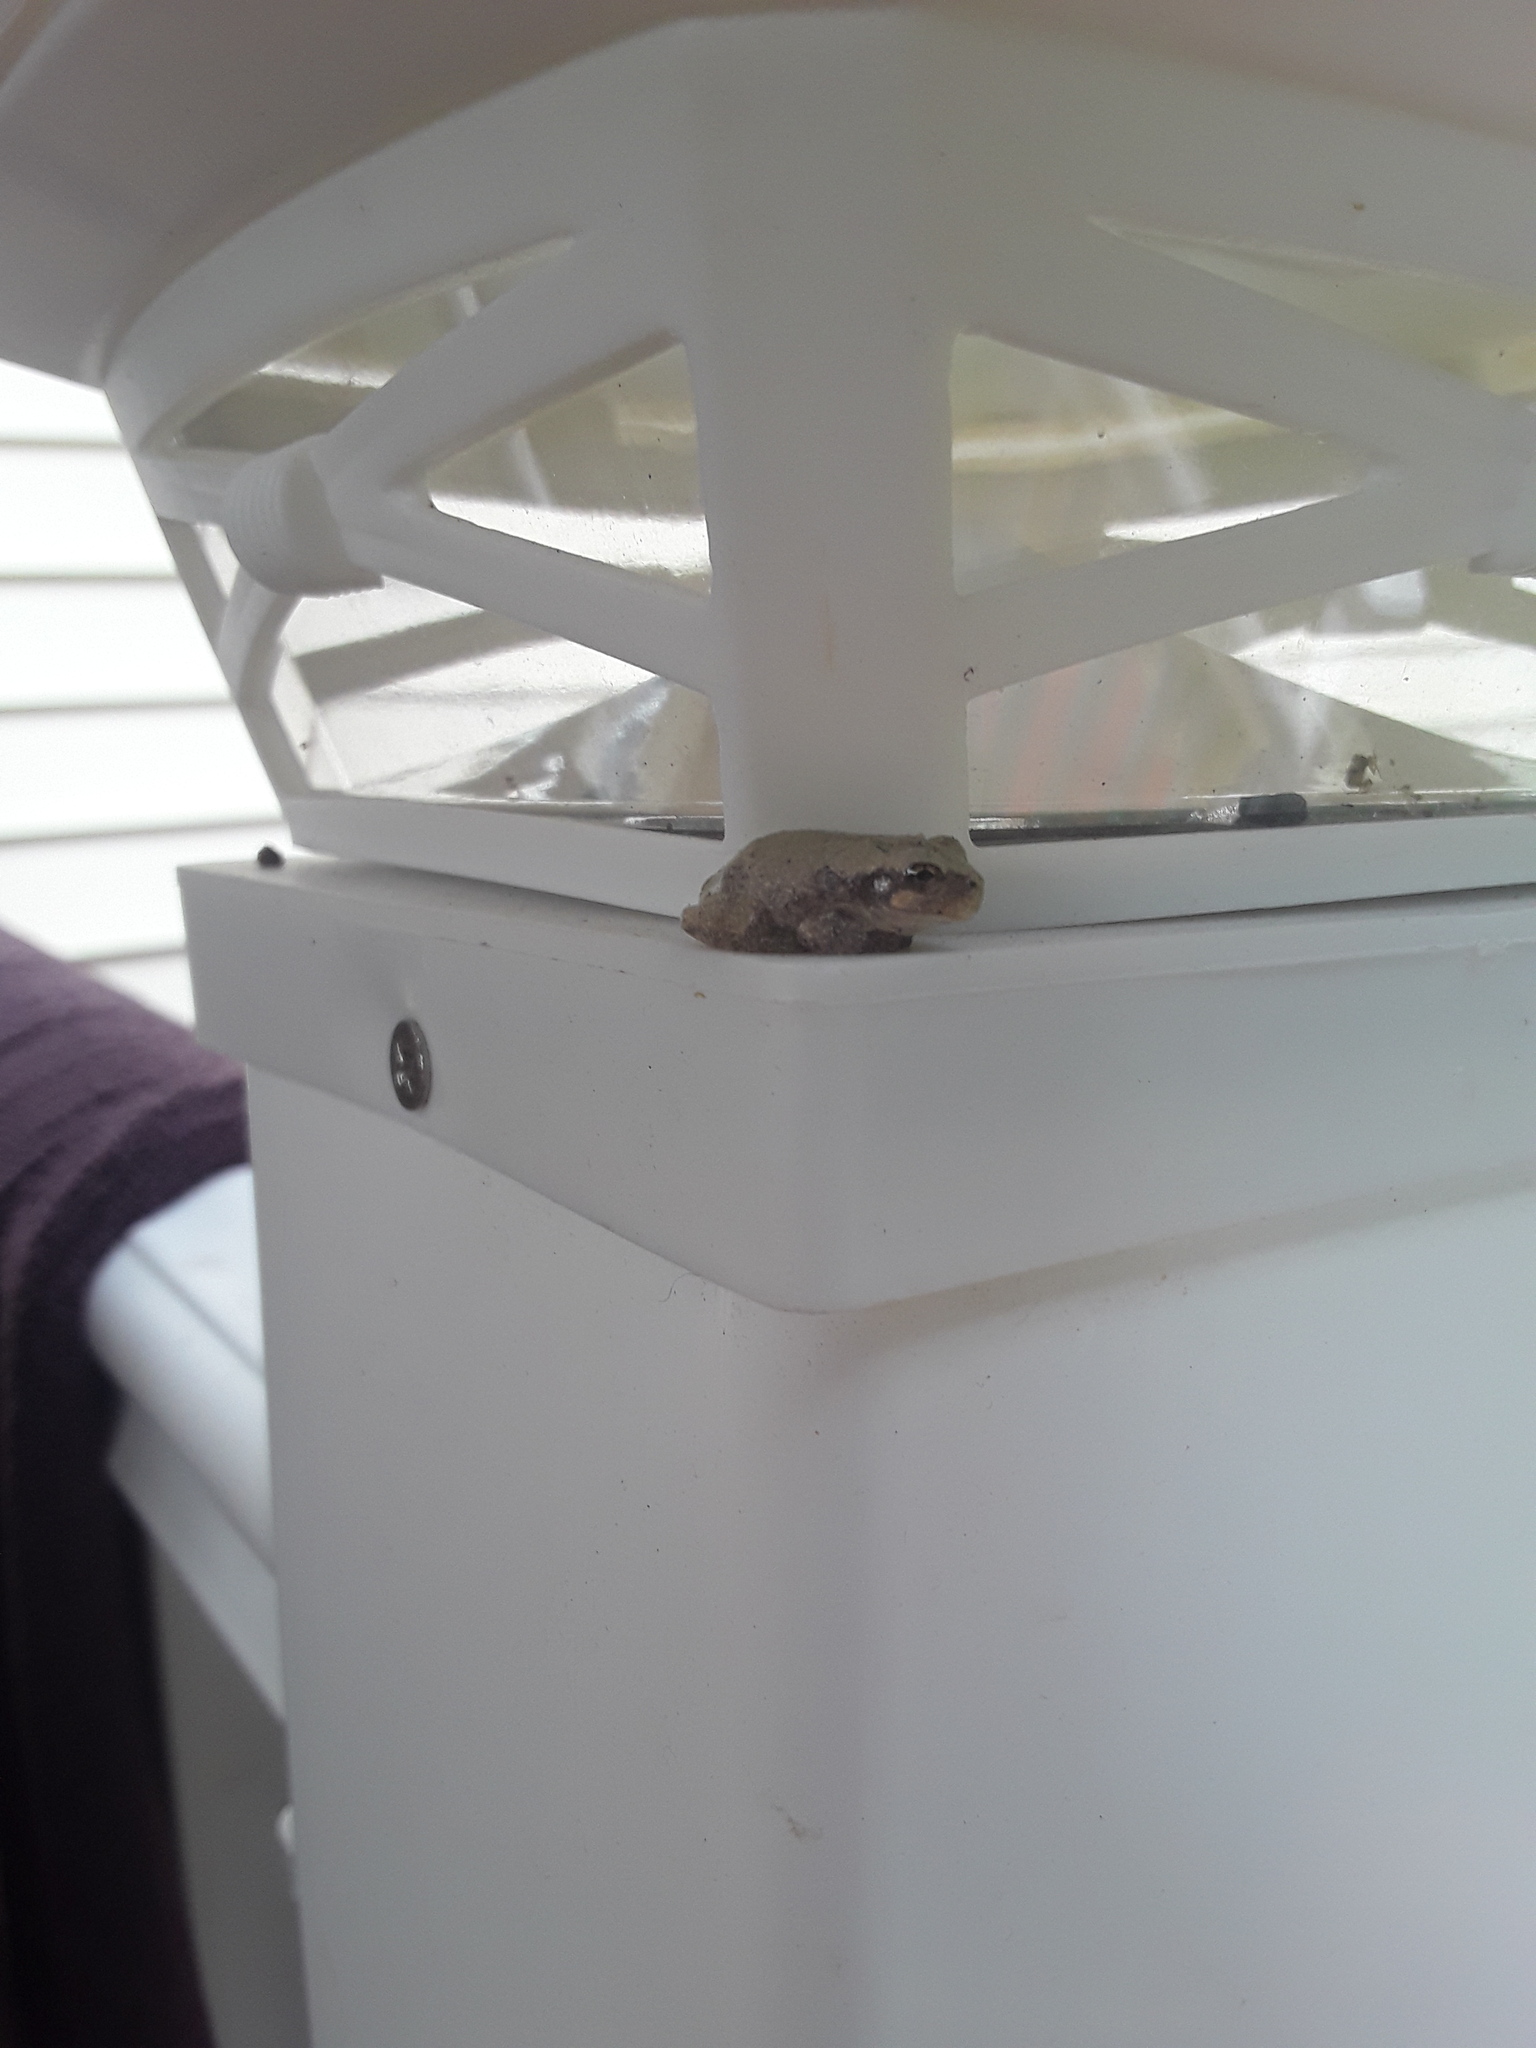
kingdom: Animalia
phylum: Chordata
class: Amphibia
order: Anura
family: Hylidae
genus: Hyla
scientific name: Hyla
